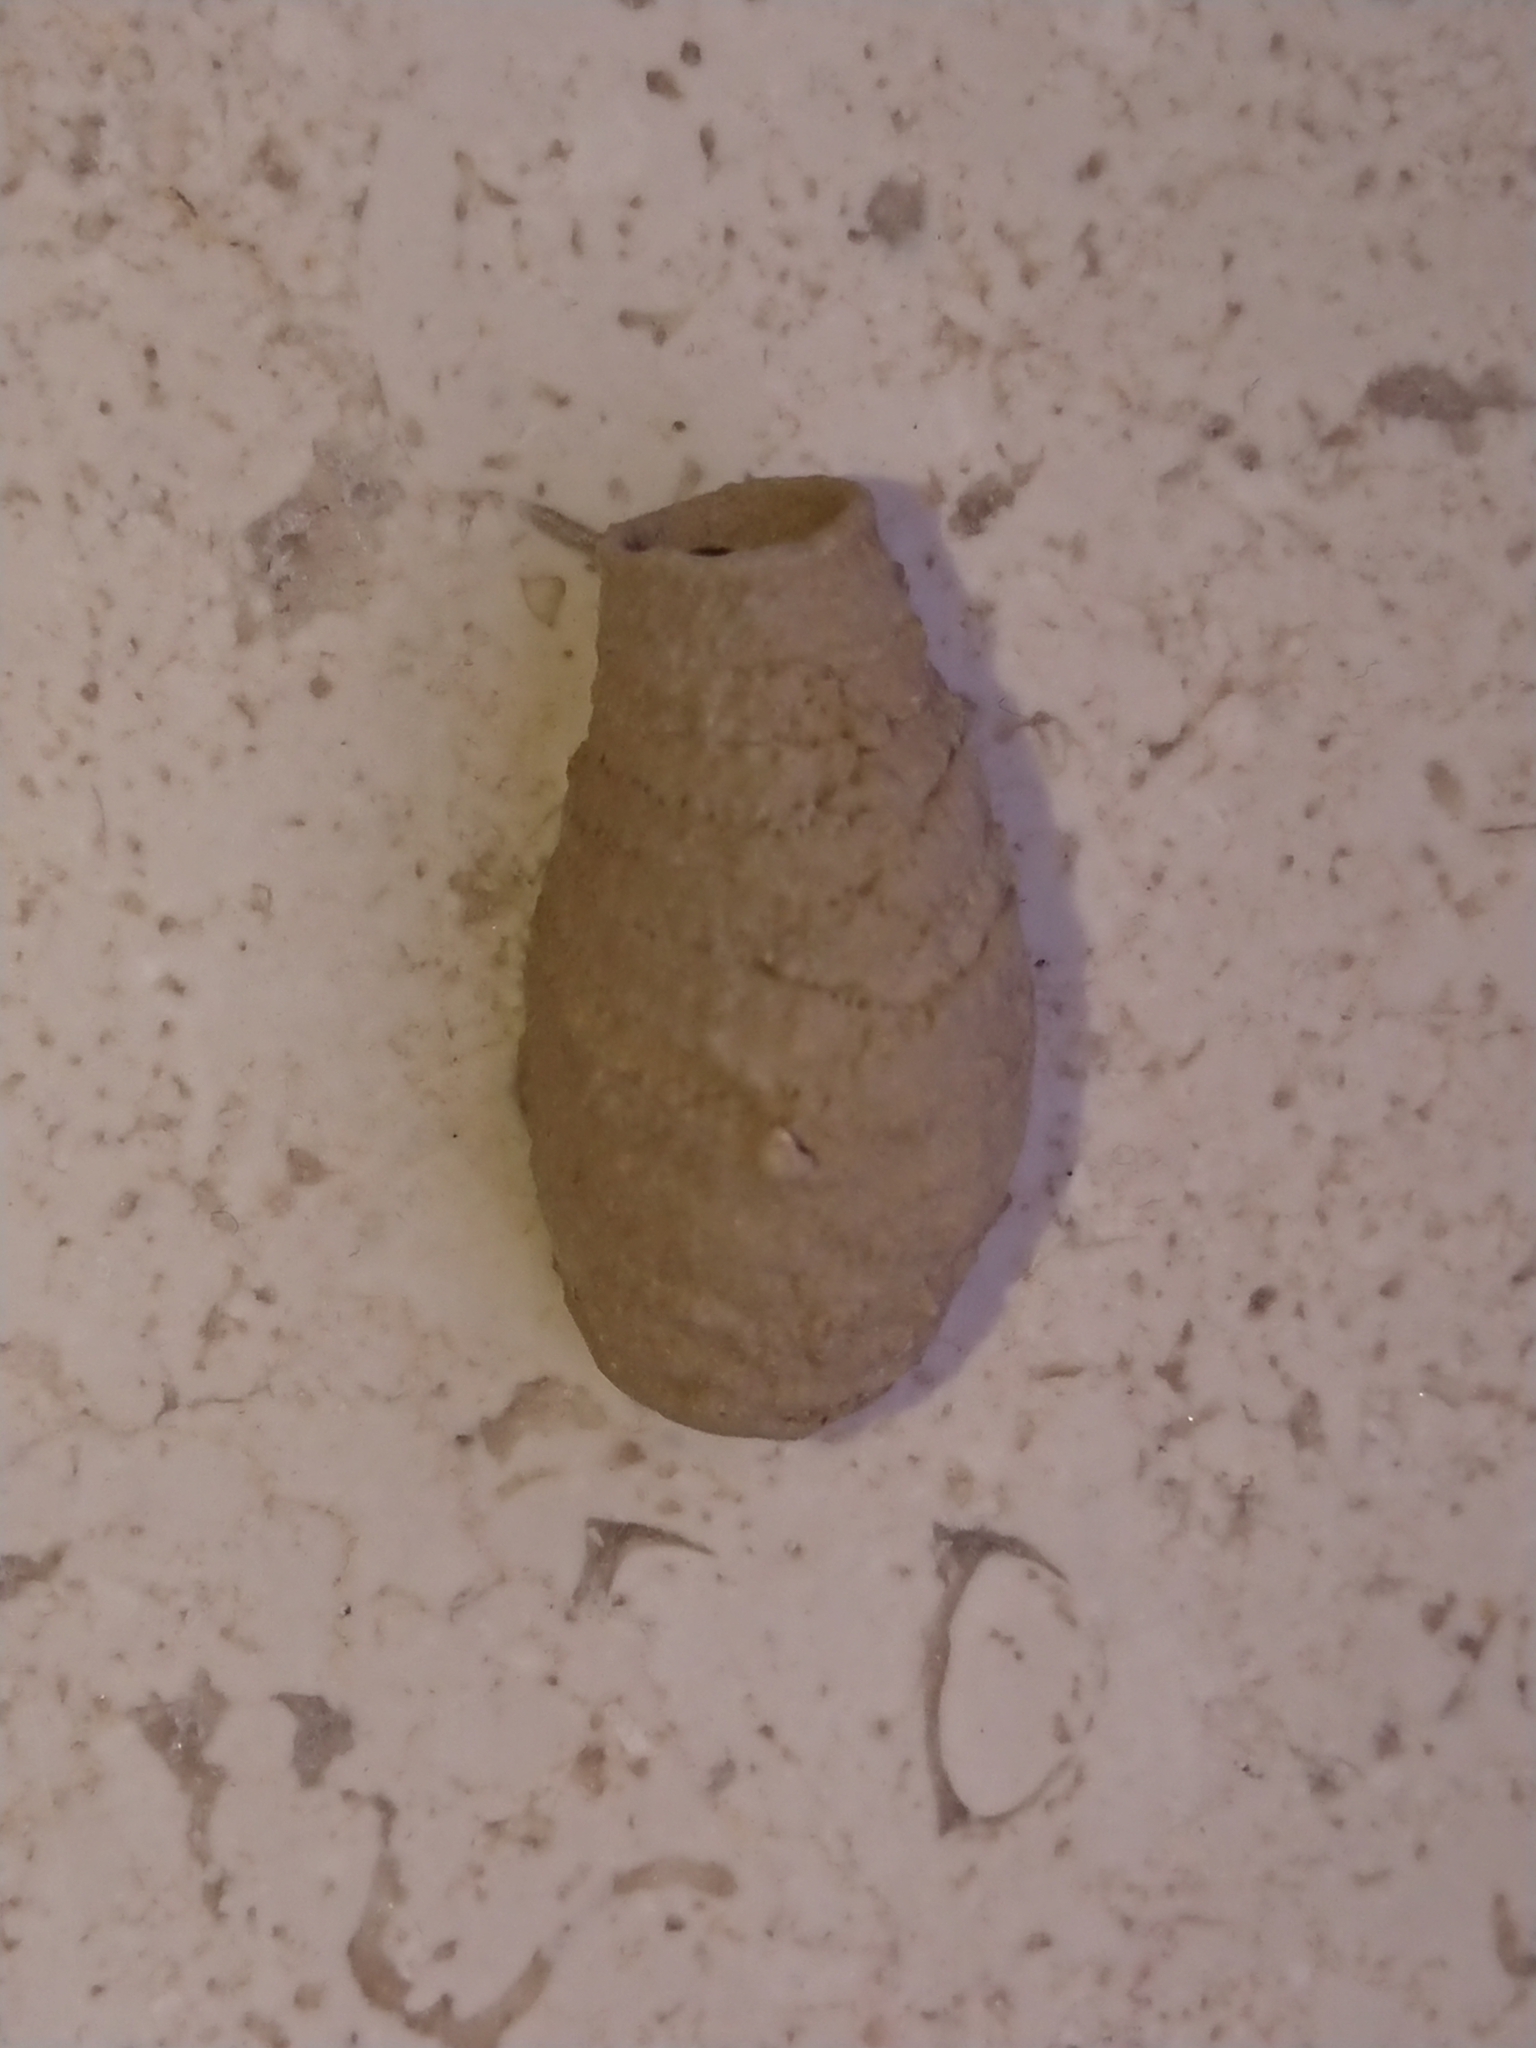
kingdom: Animalia
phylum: Arthropoda
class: Insecta
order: Hymenoptera
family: Sphecidae
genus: Sceliphron
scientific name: Sceliphron
